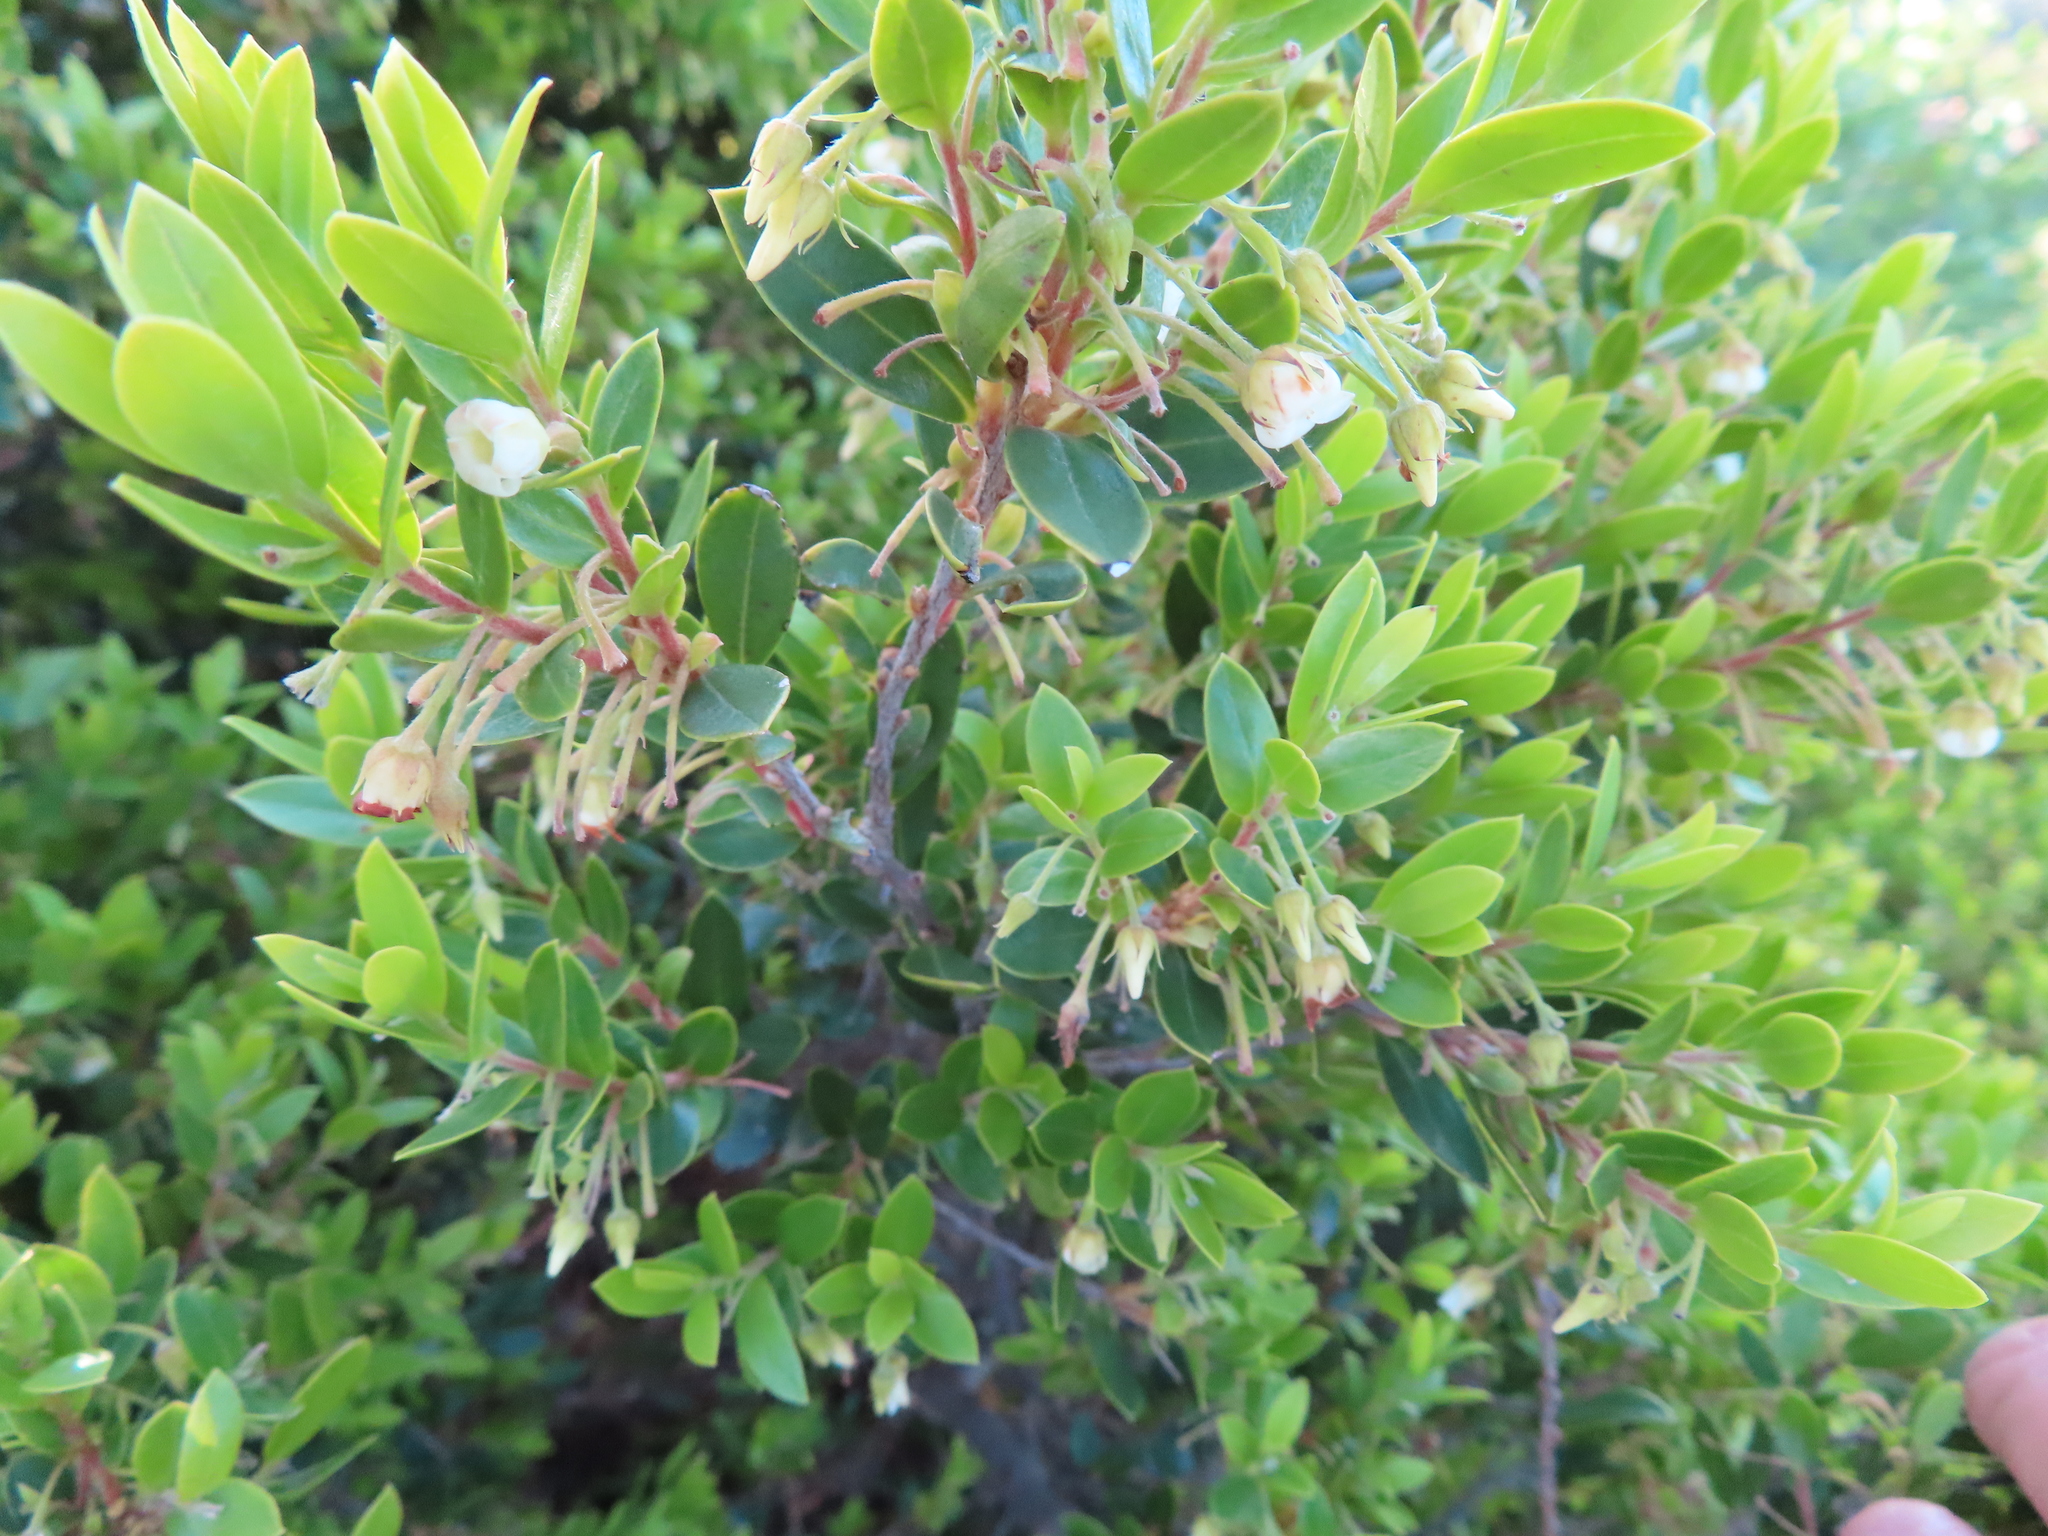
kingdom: Plantae
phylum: Tracheophyta
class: Magnoliopsida
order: Ericales
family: Ebenaceae
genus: Diospyros
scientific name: Diospyros glabra
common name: Fynbos star apple
